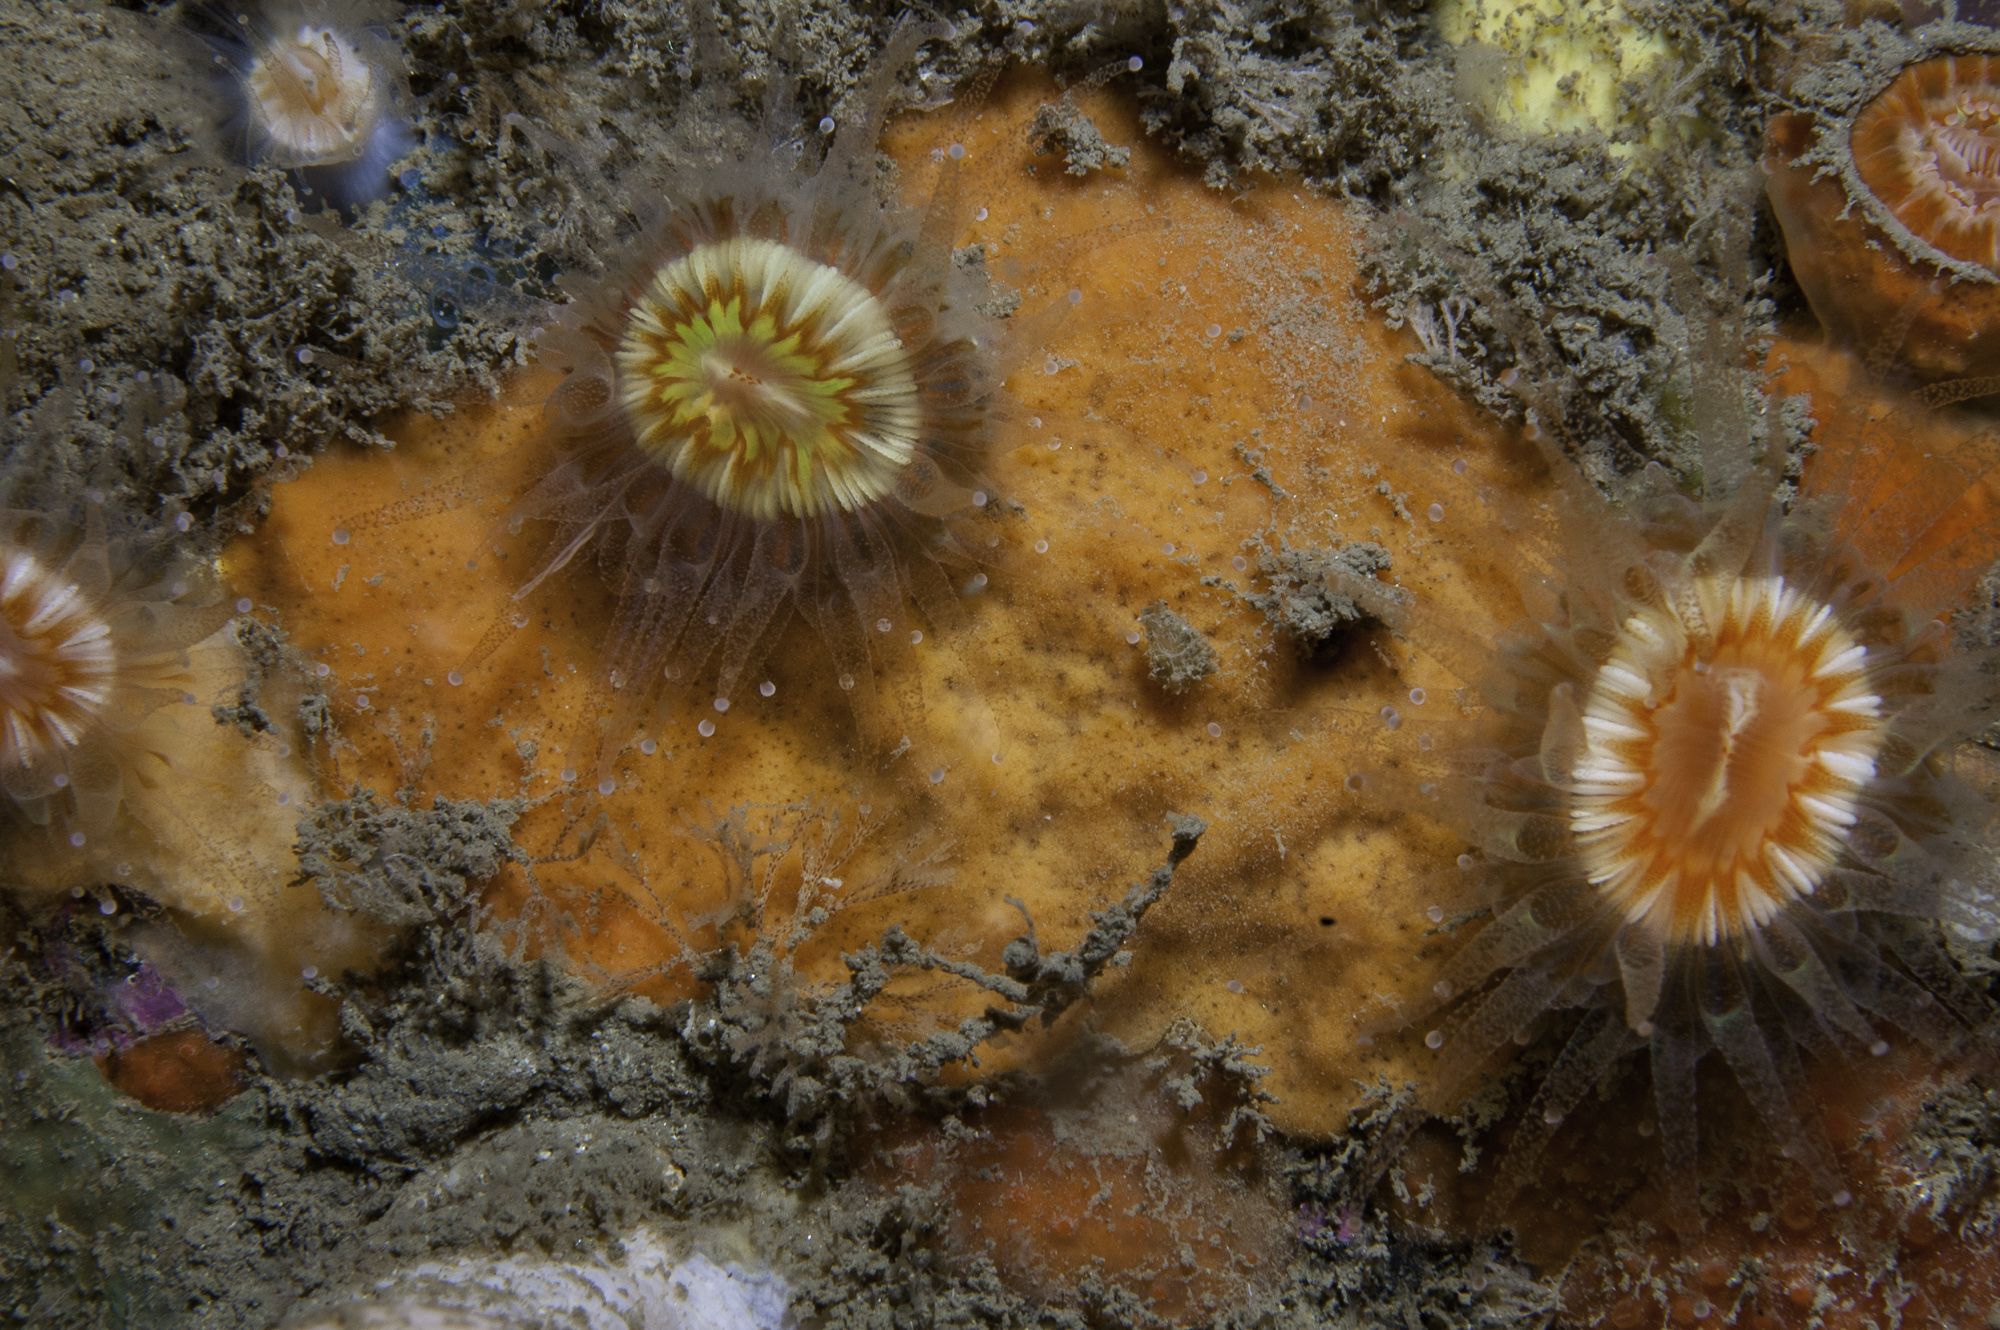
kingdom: Animalia
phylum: Porifera
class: Demospongiae
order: Poecilosclerida
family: Microcionidae
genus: Antho
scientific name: Antho involvens
